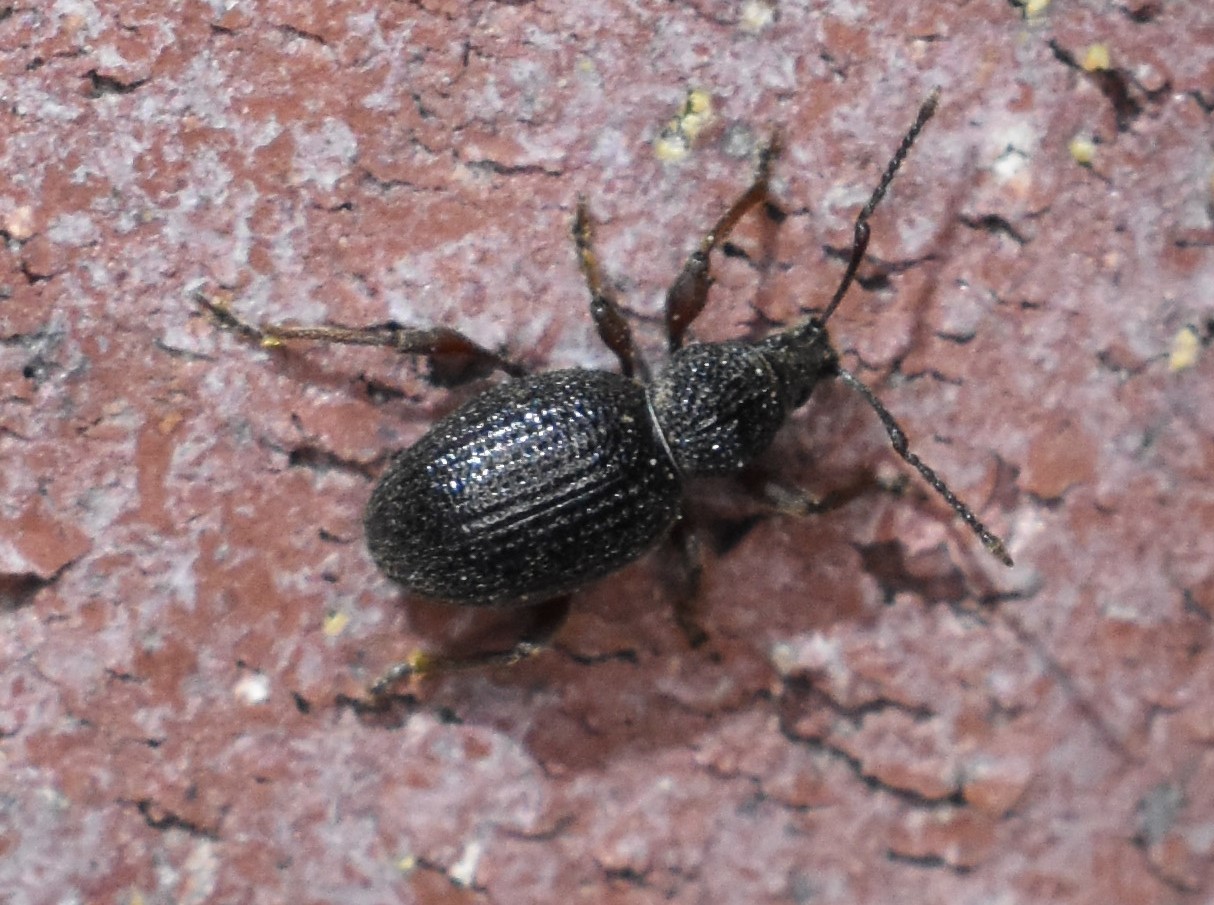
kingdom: Animalia
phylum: Arthropoda
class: Insecta
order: Coleoptera
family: Curculionidae
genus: Otiorhynchus
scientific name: Otiorhynchus ovatus
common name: Strawberry root weevil
